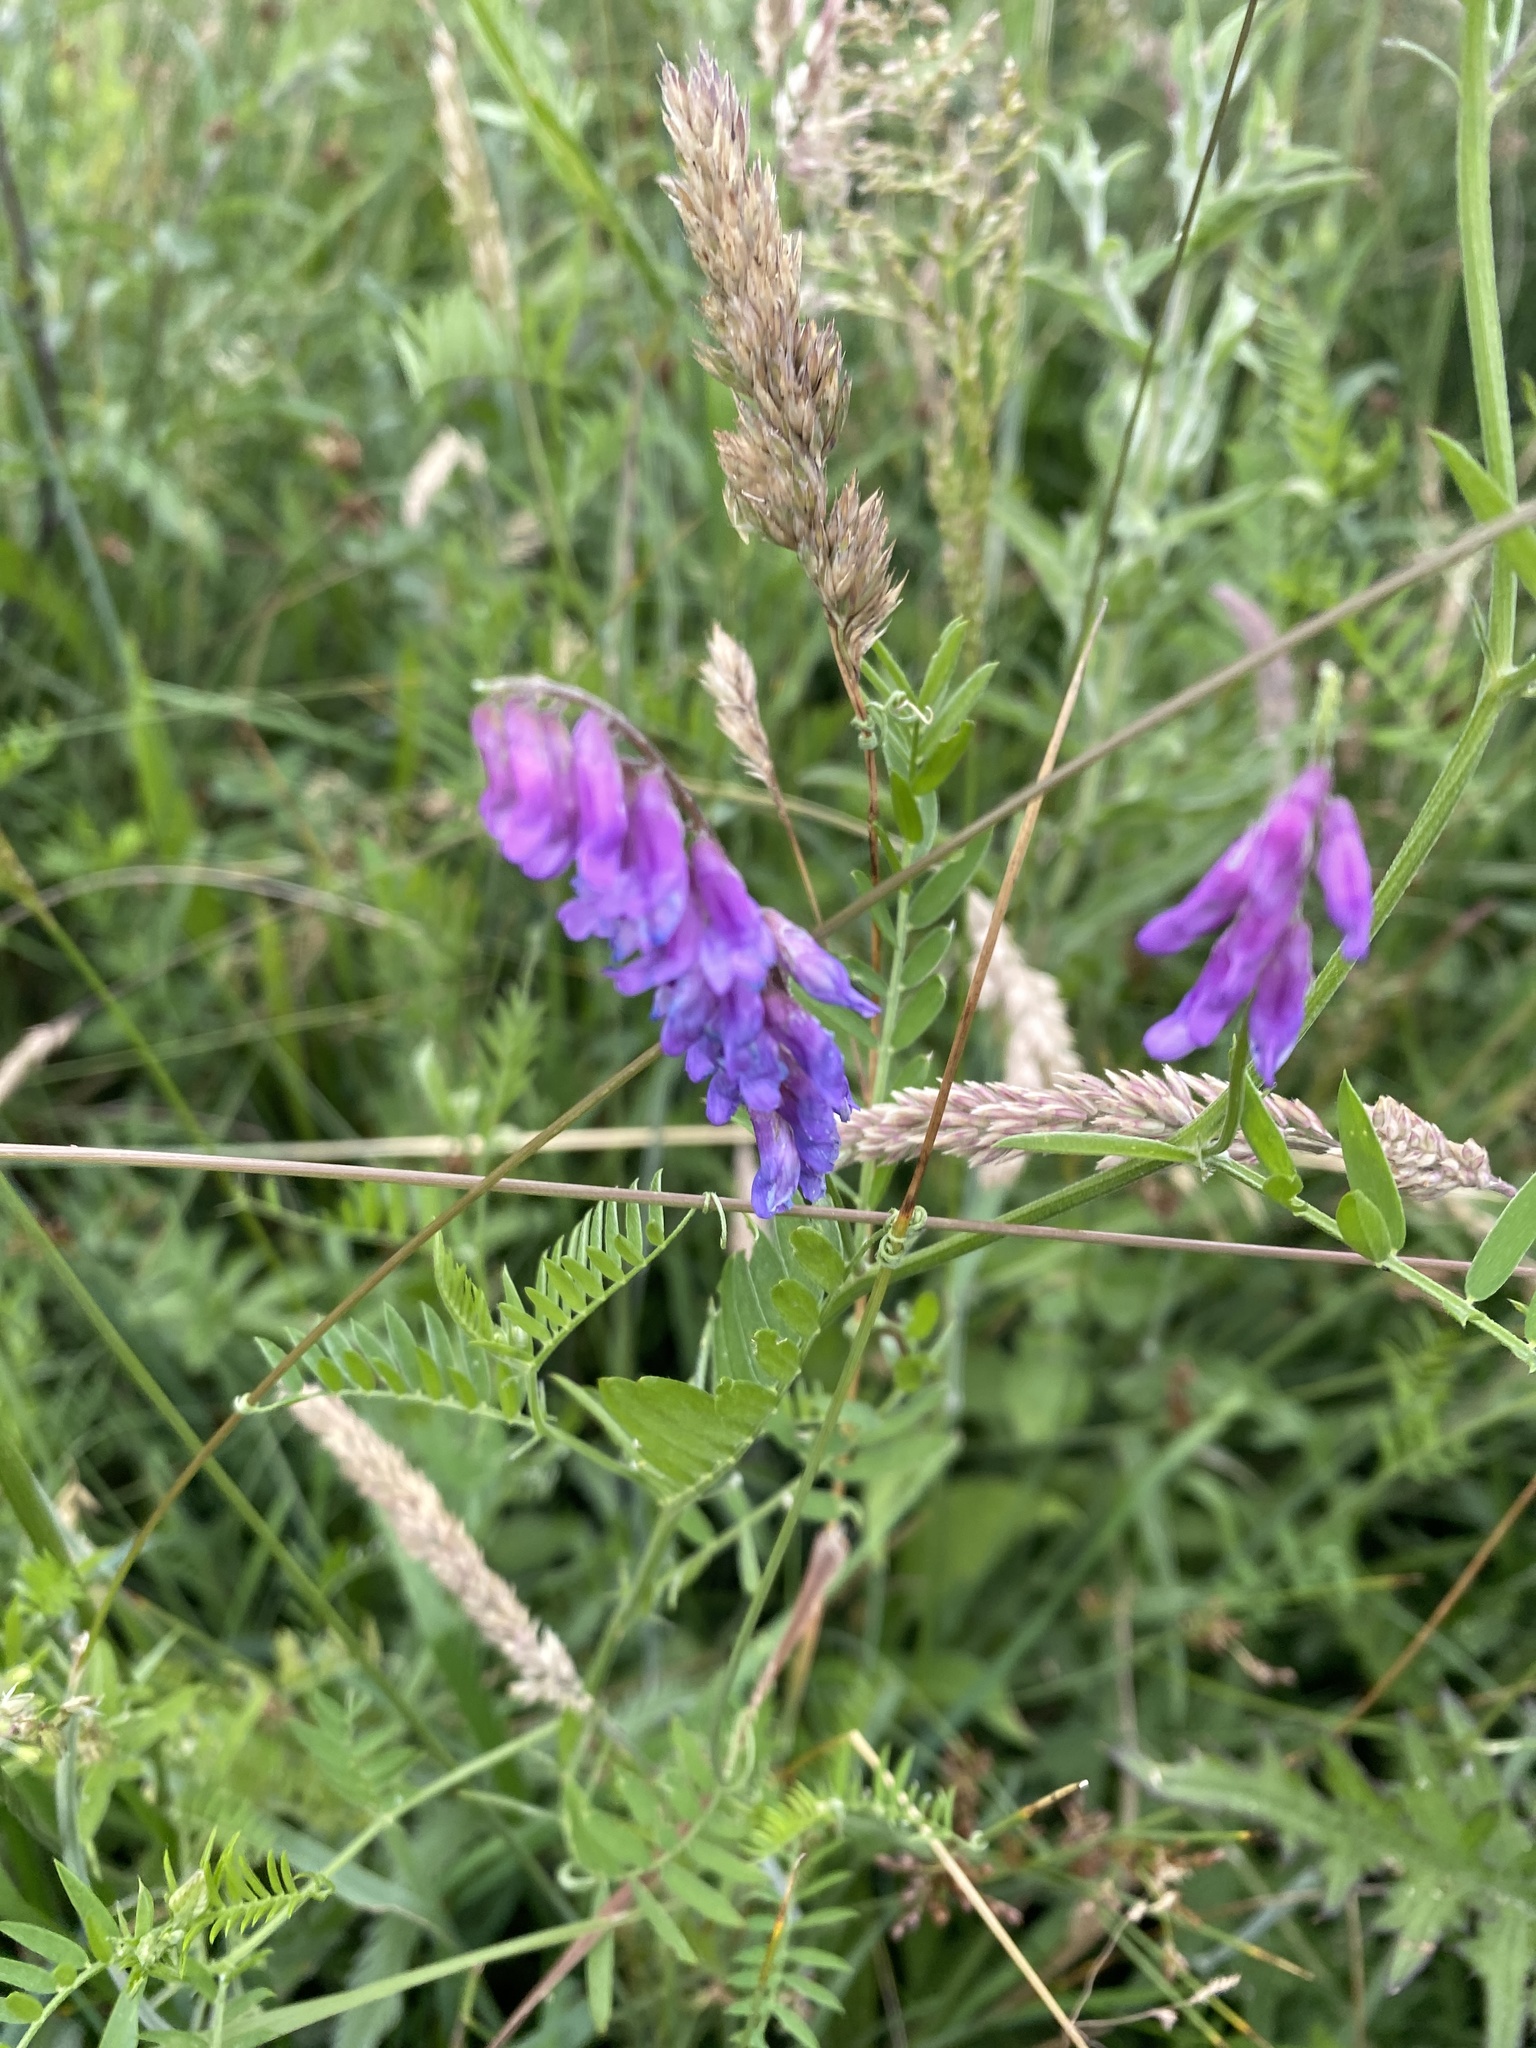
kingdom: Plantae
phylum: Tracheophyta
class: Magnoliopsida
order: Fabales
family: Fabaceae
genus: Vicia
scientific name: Vicia cracca
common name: Bird vetch
